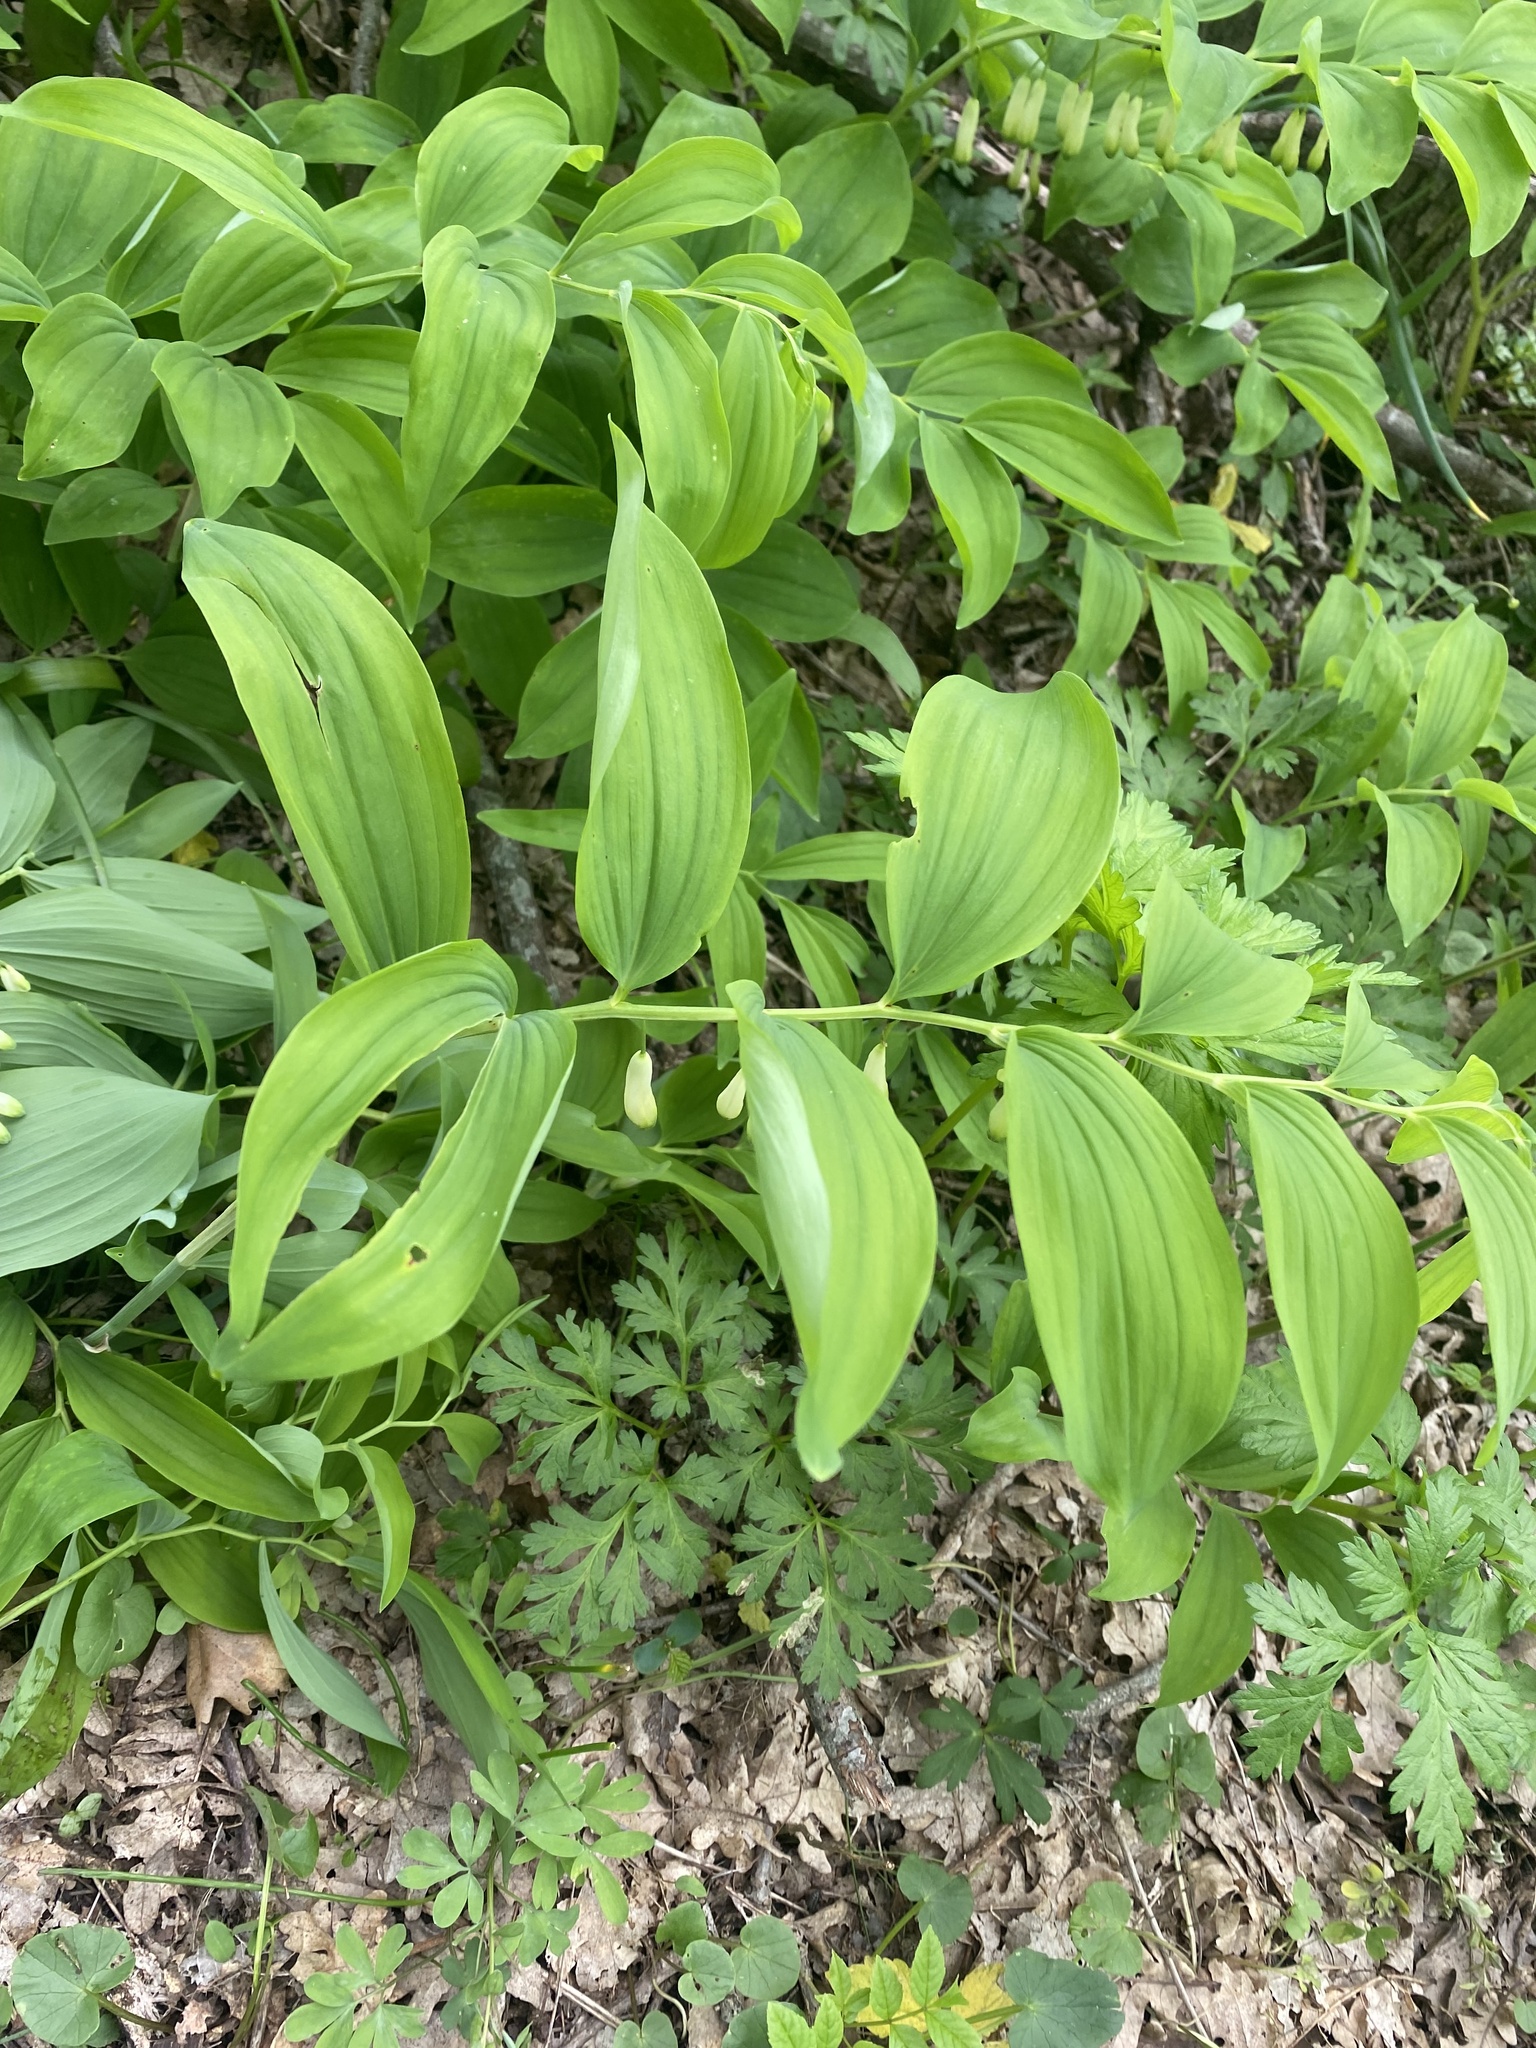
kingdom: Plantae
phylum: Tracheophyta
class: Liliopsida
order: Asparagales
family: Asparagaceae
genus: Polygonatum
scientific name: Polygonatum multiflorum
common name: Solomon's-seal
